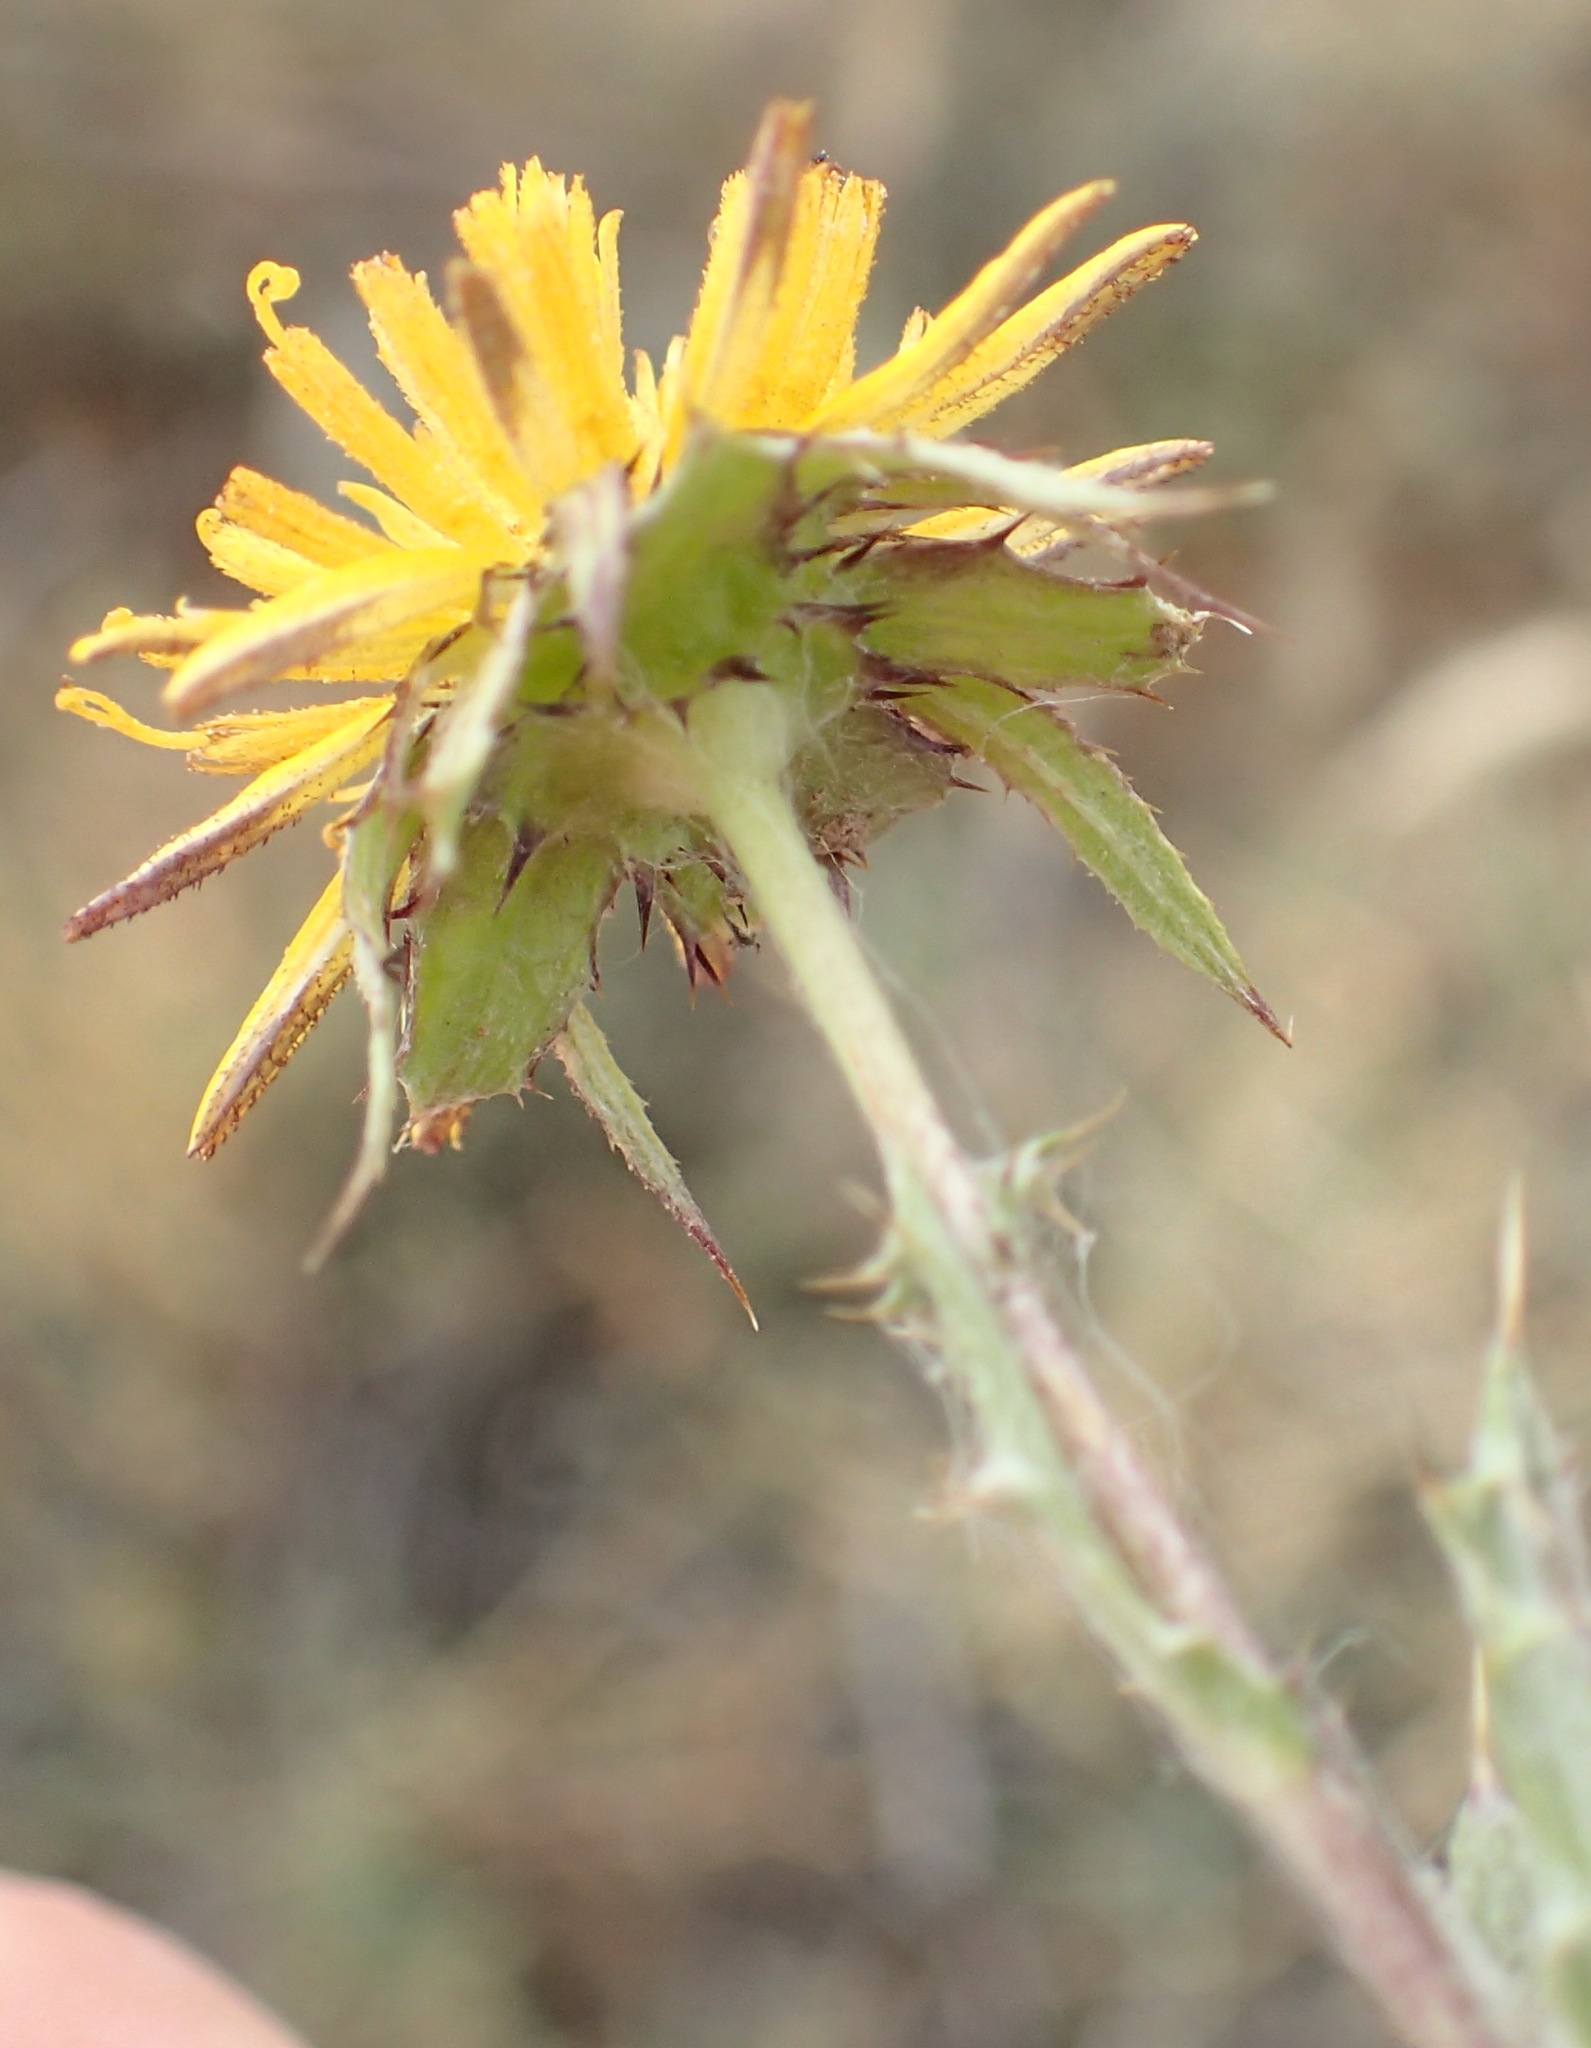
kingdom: Plantae
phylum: Tracheophyta
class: Magnoliopsida
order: Asterales
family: Asteraceae
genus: Cuspidia
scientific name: Cuspidia cernua
